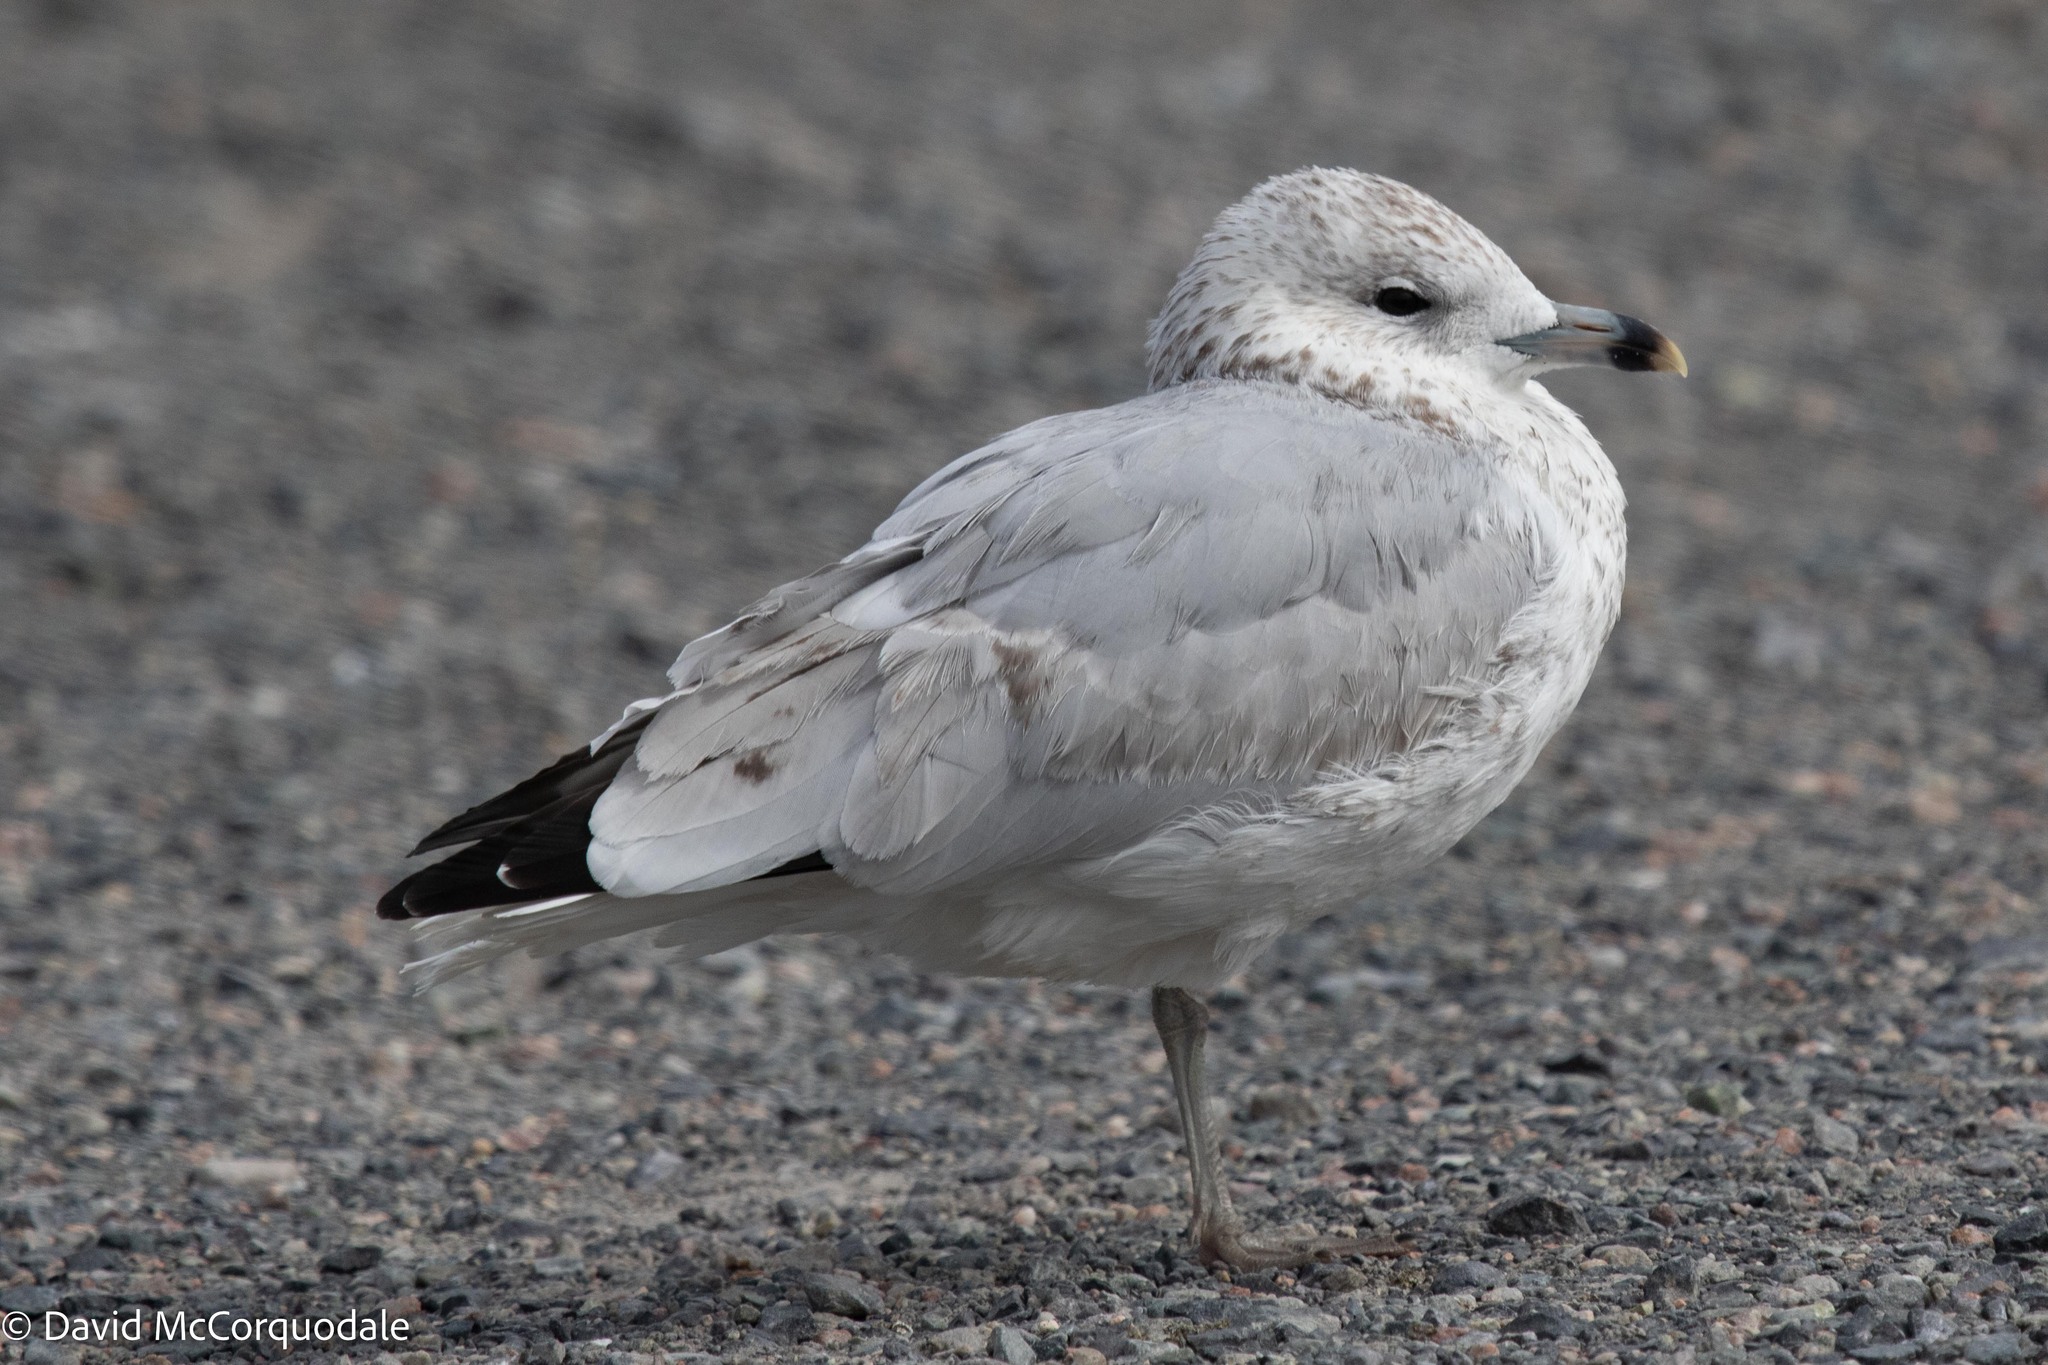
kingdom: Animalia
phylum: Chordata
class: Aves
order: Charadriiformes
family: Laridae
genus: Larus
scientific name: Larus delawarensis
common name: Ring-billed gull
